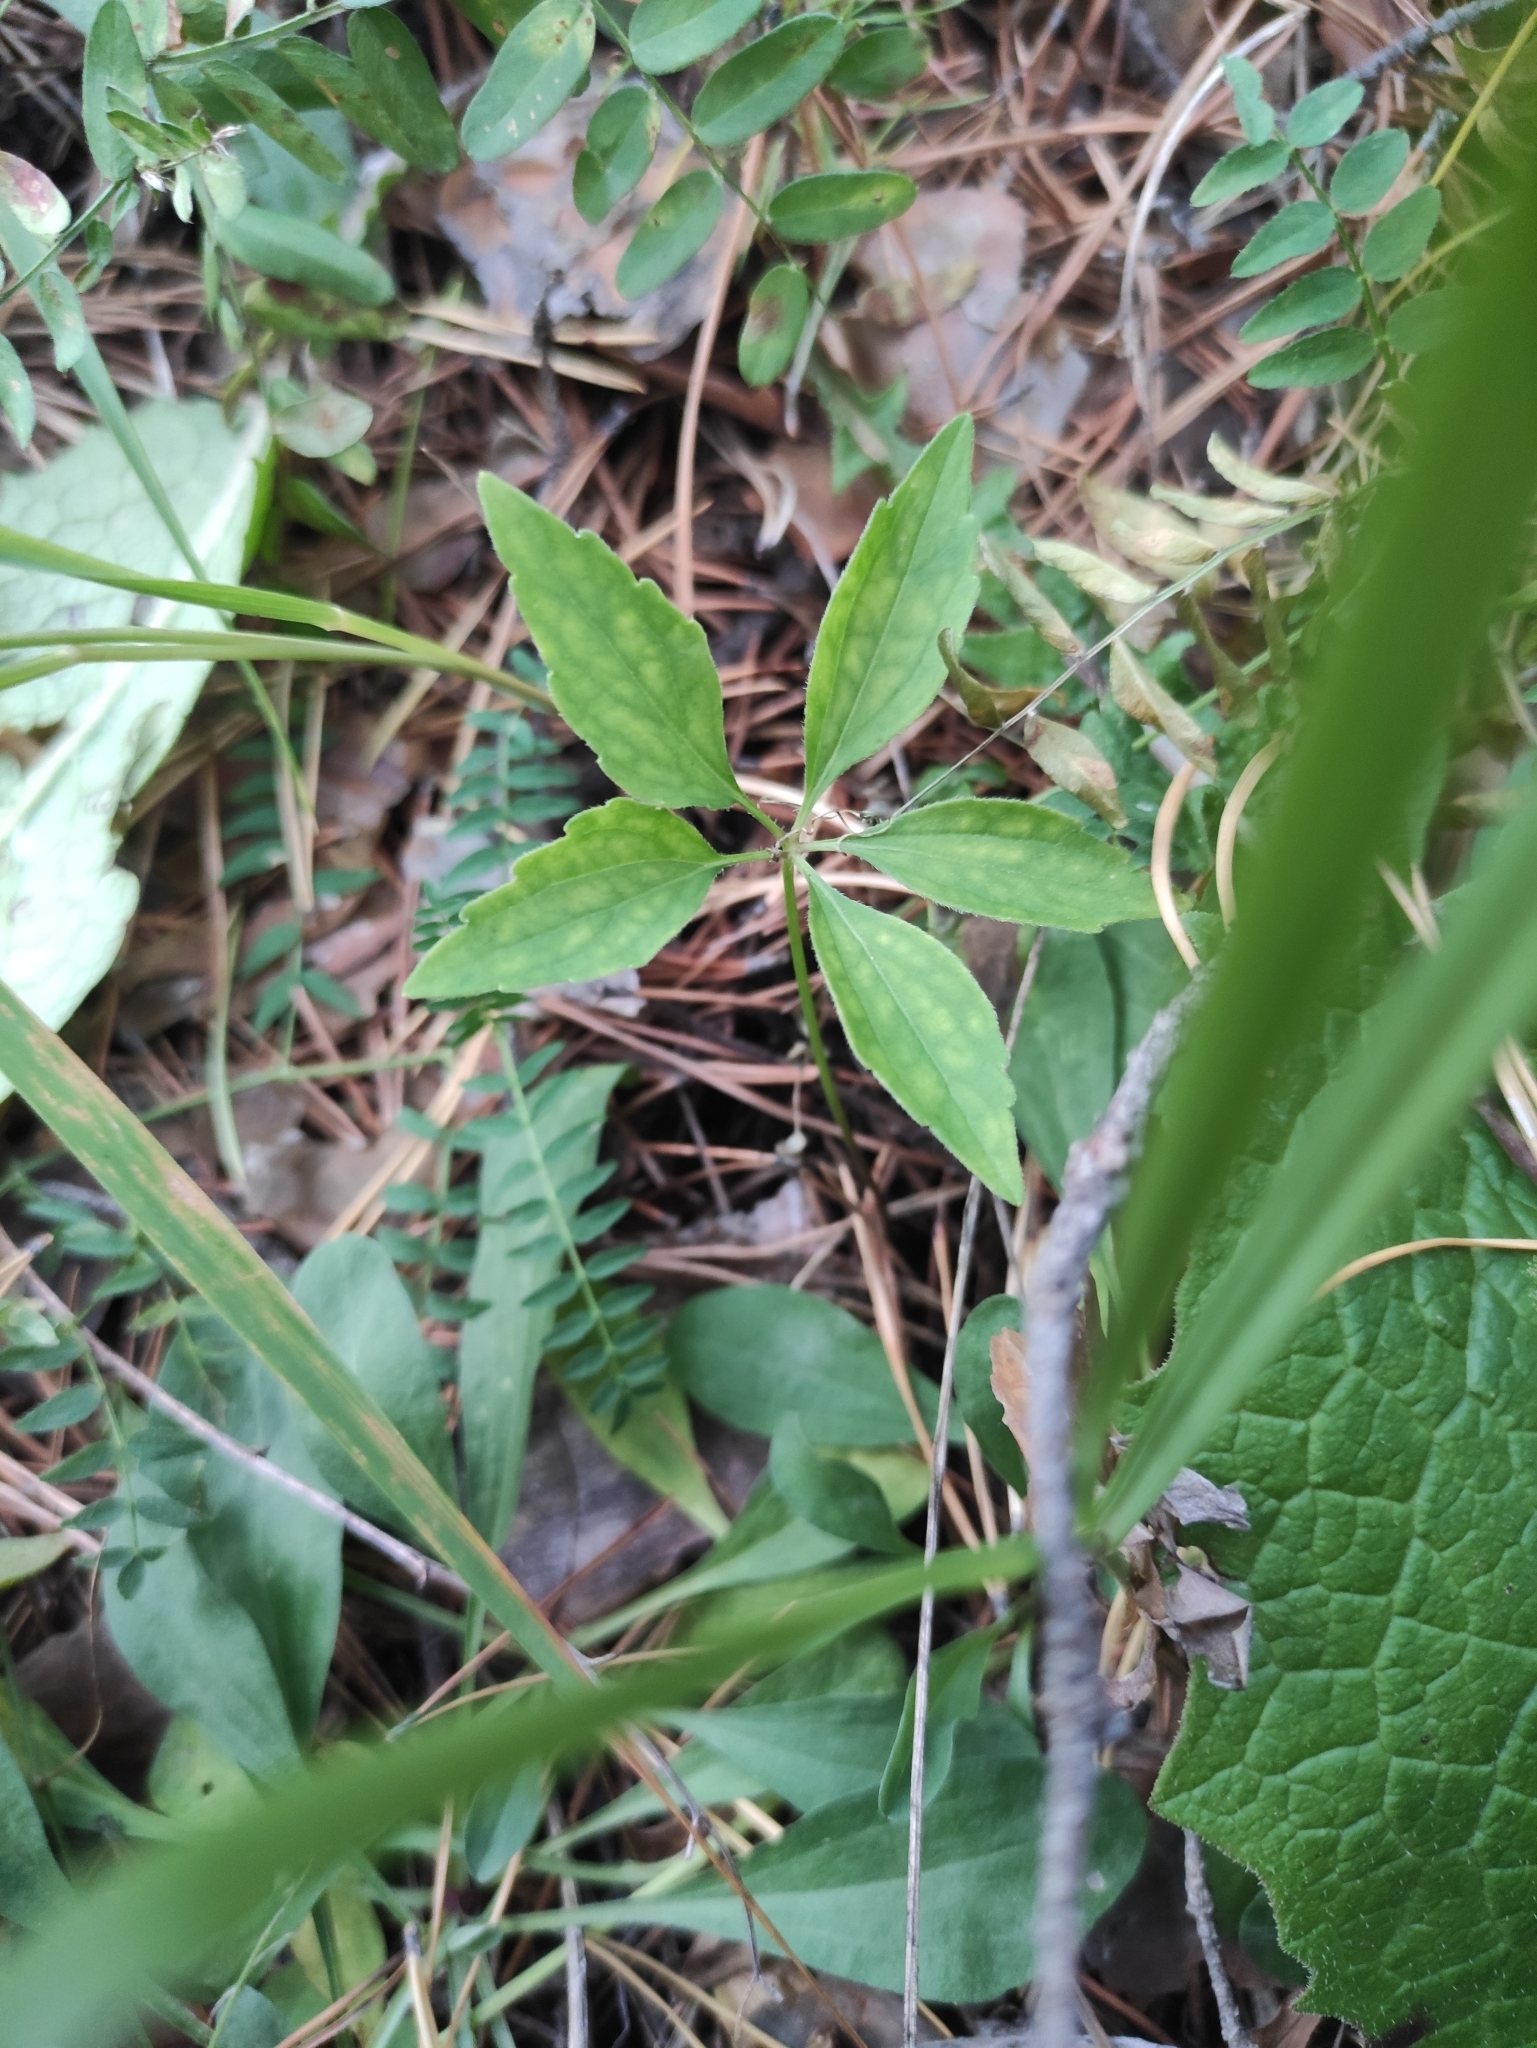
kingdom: Plantae
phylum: Tracheophyta
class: Magnoliopsida
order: Malpighiales
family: Violaceae
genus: Viola
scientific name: Viola dactyloides
